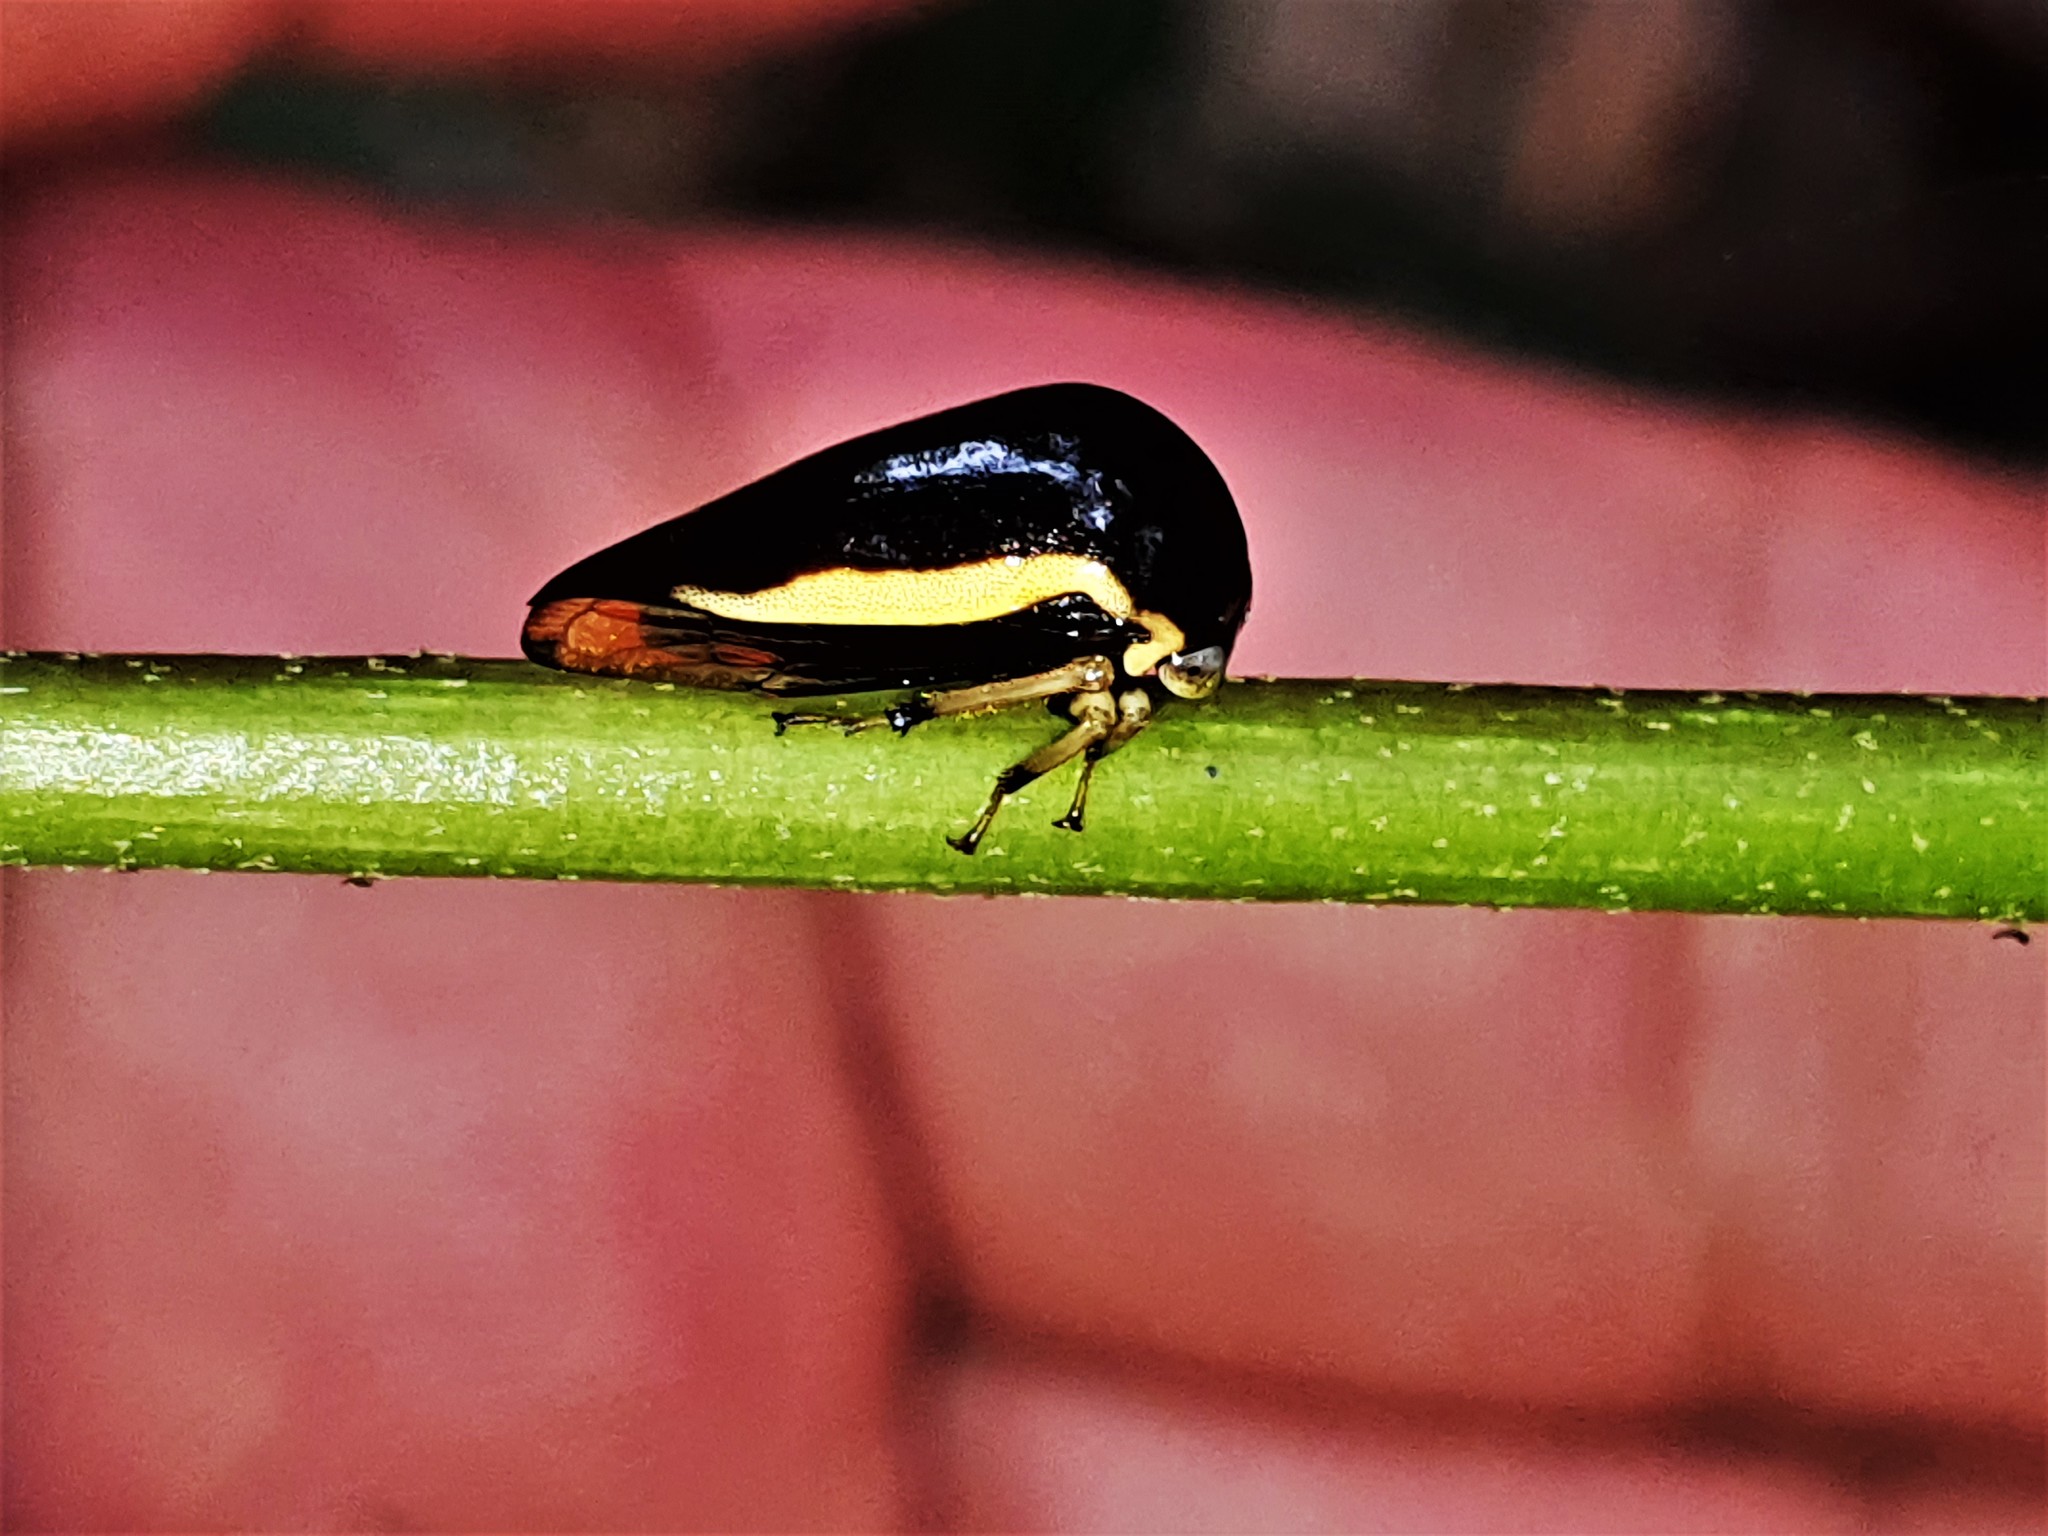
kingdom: Animalia
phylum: Arthropoda
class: Insecta
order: Hemiptera
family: Membracidae
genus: Darnis
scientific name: Darnis lateralis
